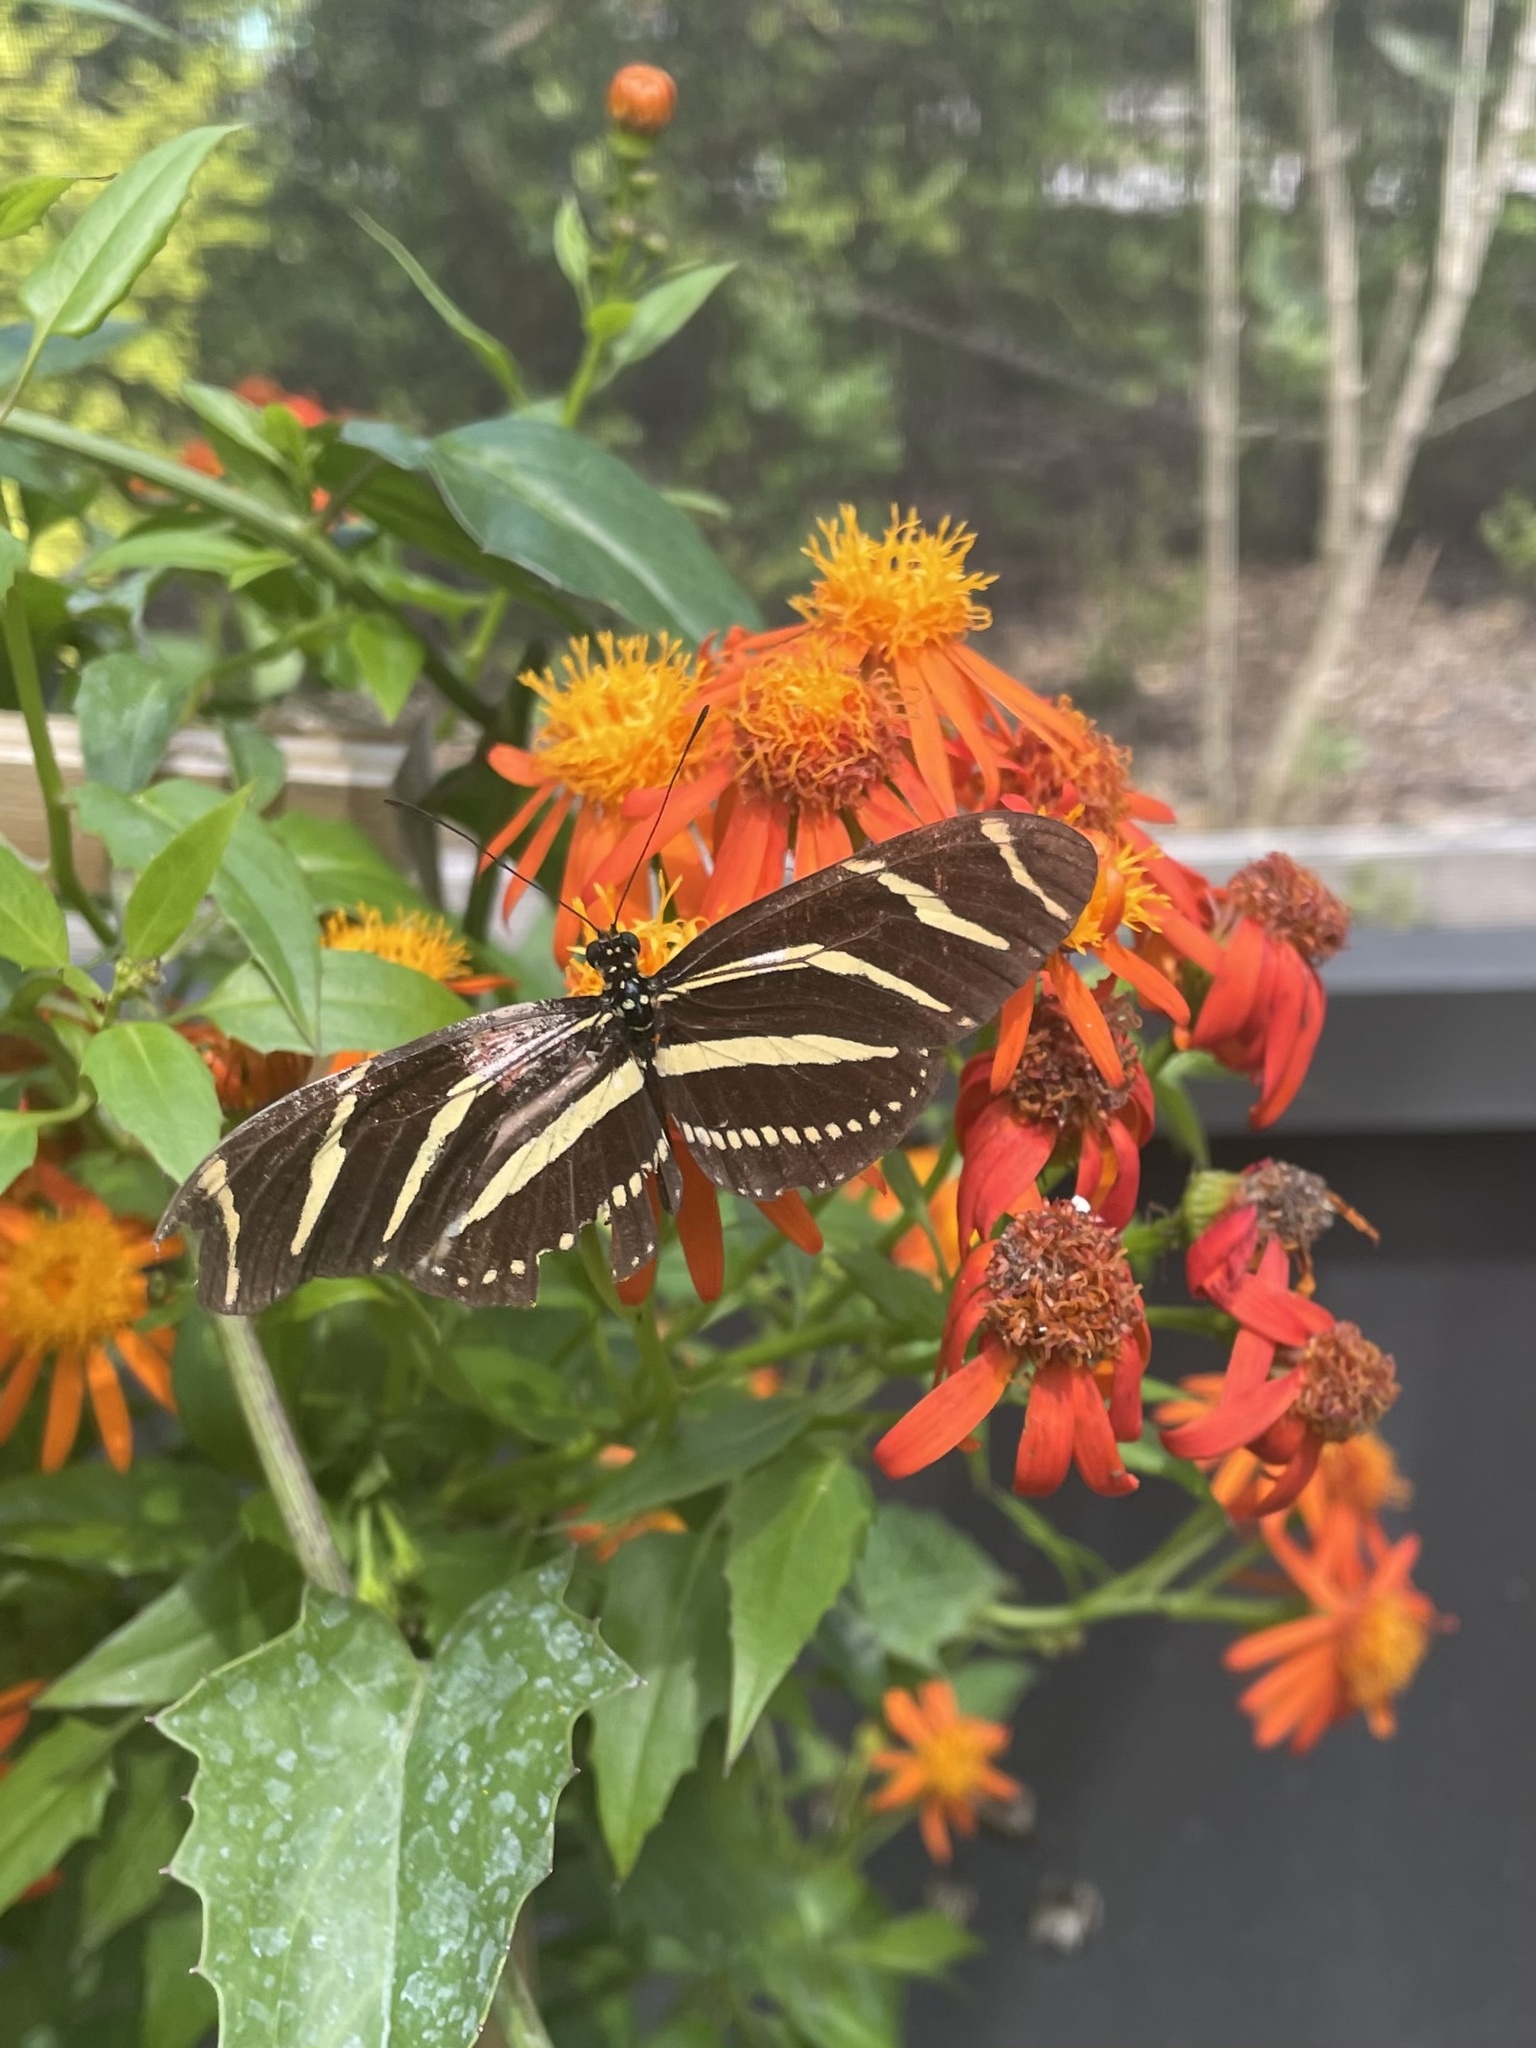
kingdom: Animalia
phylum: Arthropoda
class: Insecta
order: Lepidoptera
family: Nymphalidae
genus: Heliconius
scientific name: Heliconius charithonia
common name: Zebra long wing
